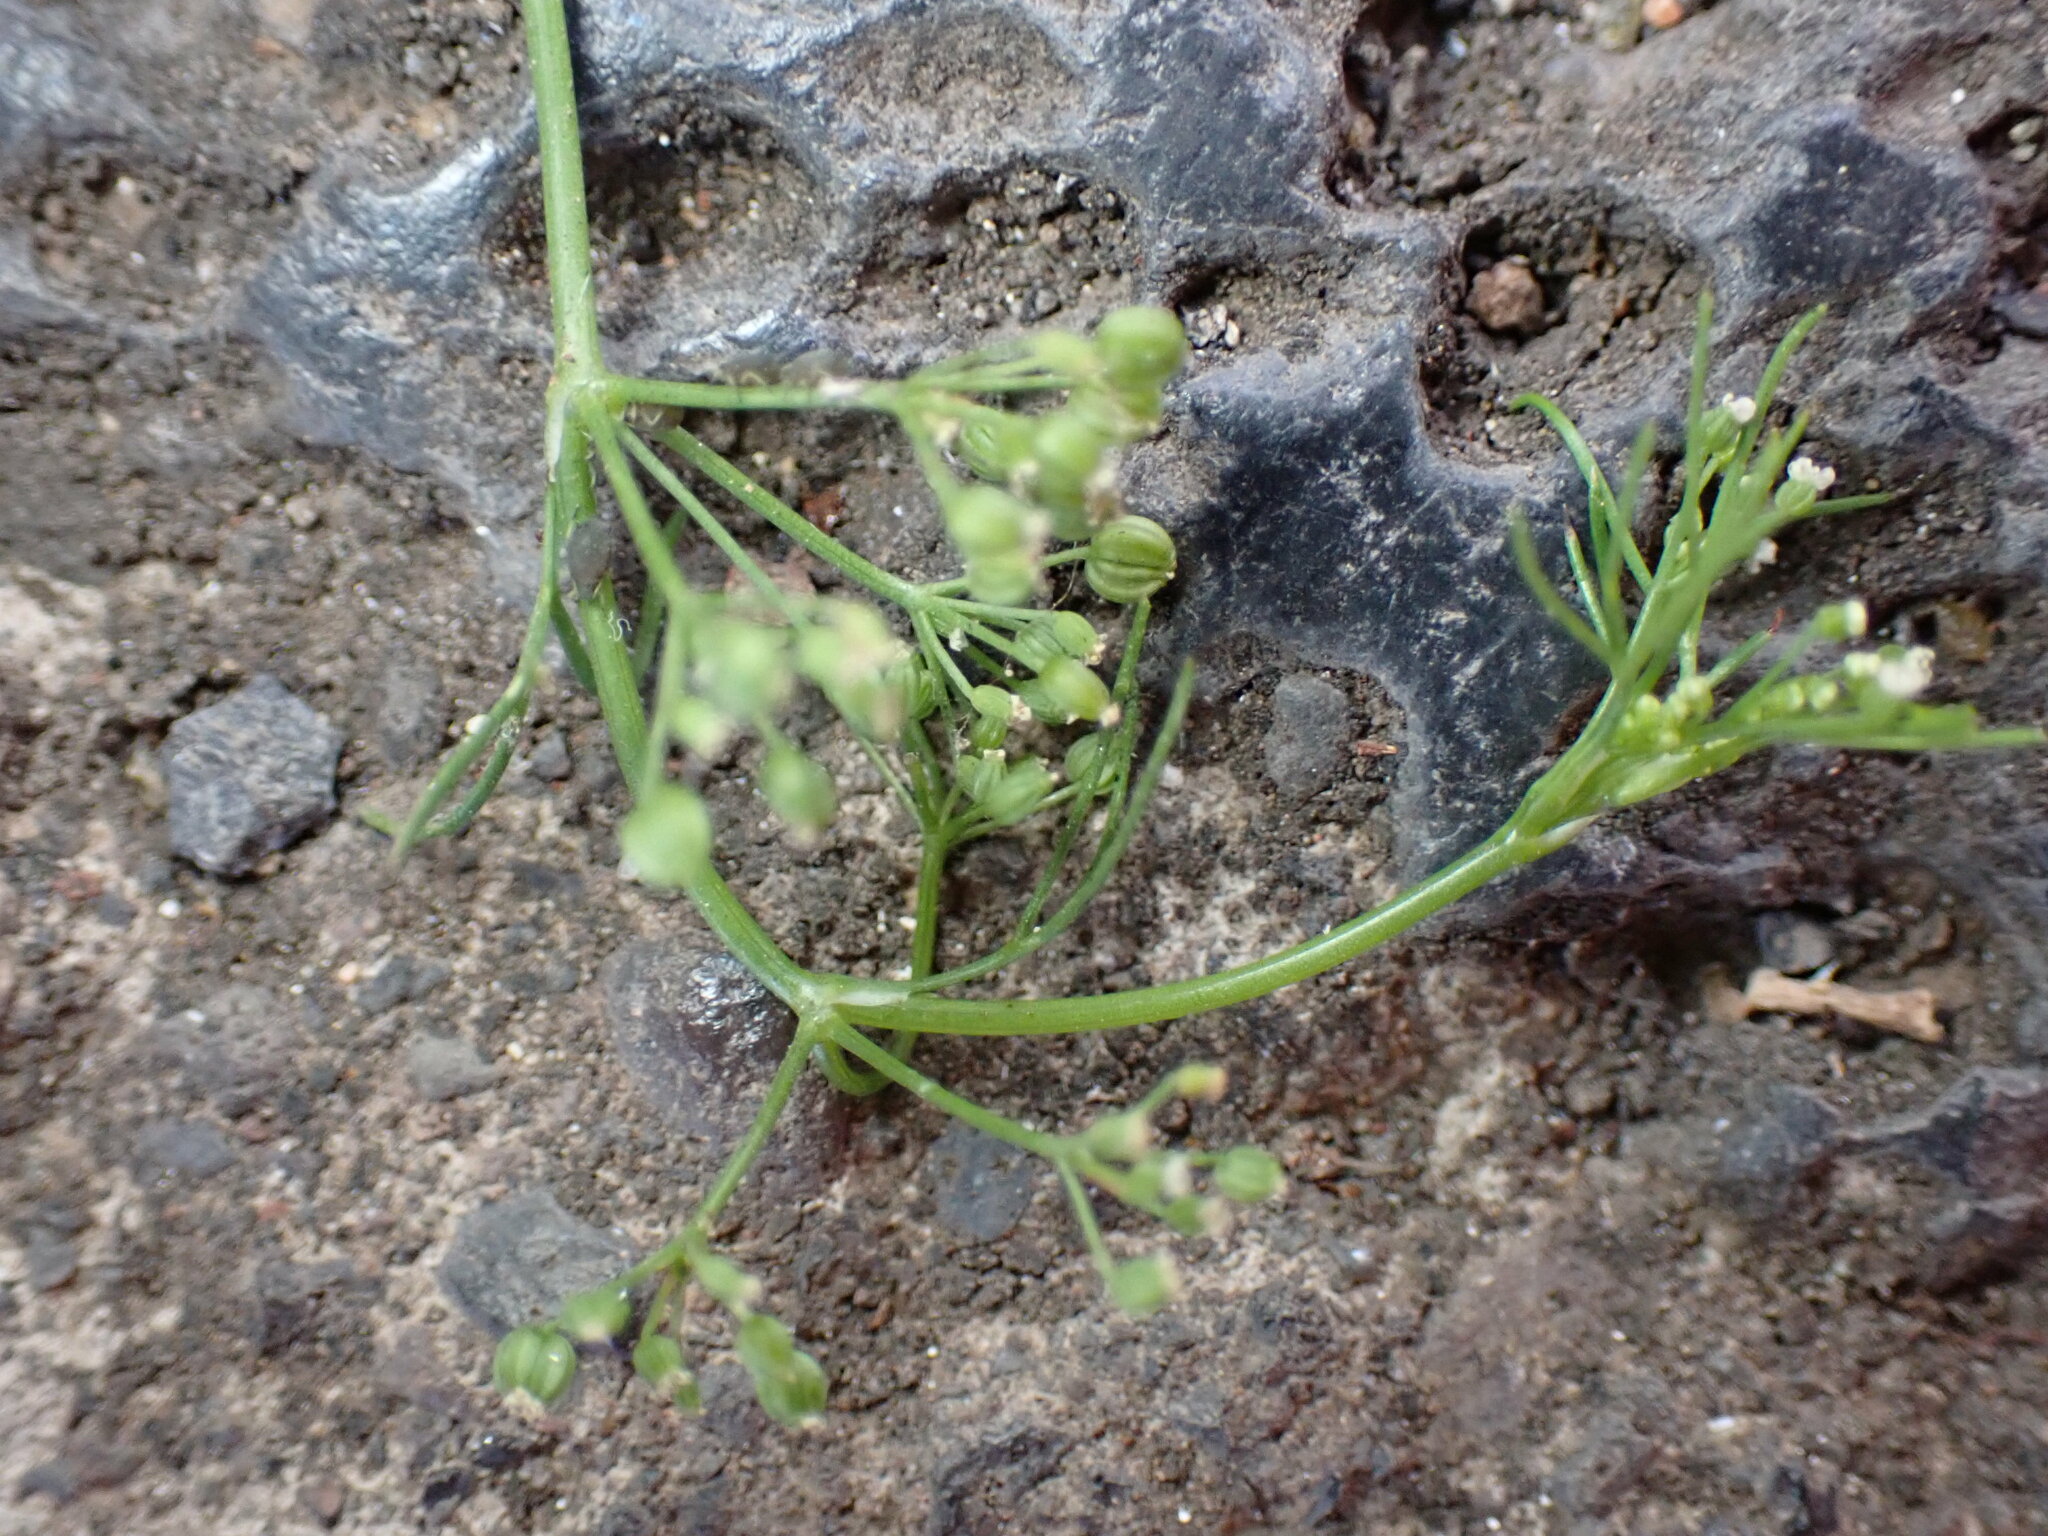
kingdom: Plantae
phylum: Tracheophyta
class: Magnoliopsida
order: Apiales
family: Apiaceae
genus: Cyclospermum
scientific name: Cyclospermum leptophyllum
